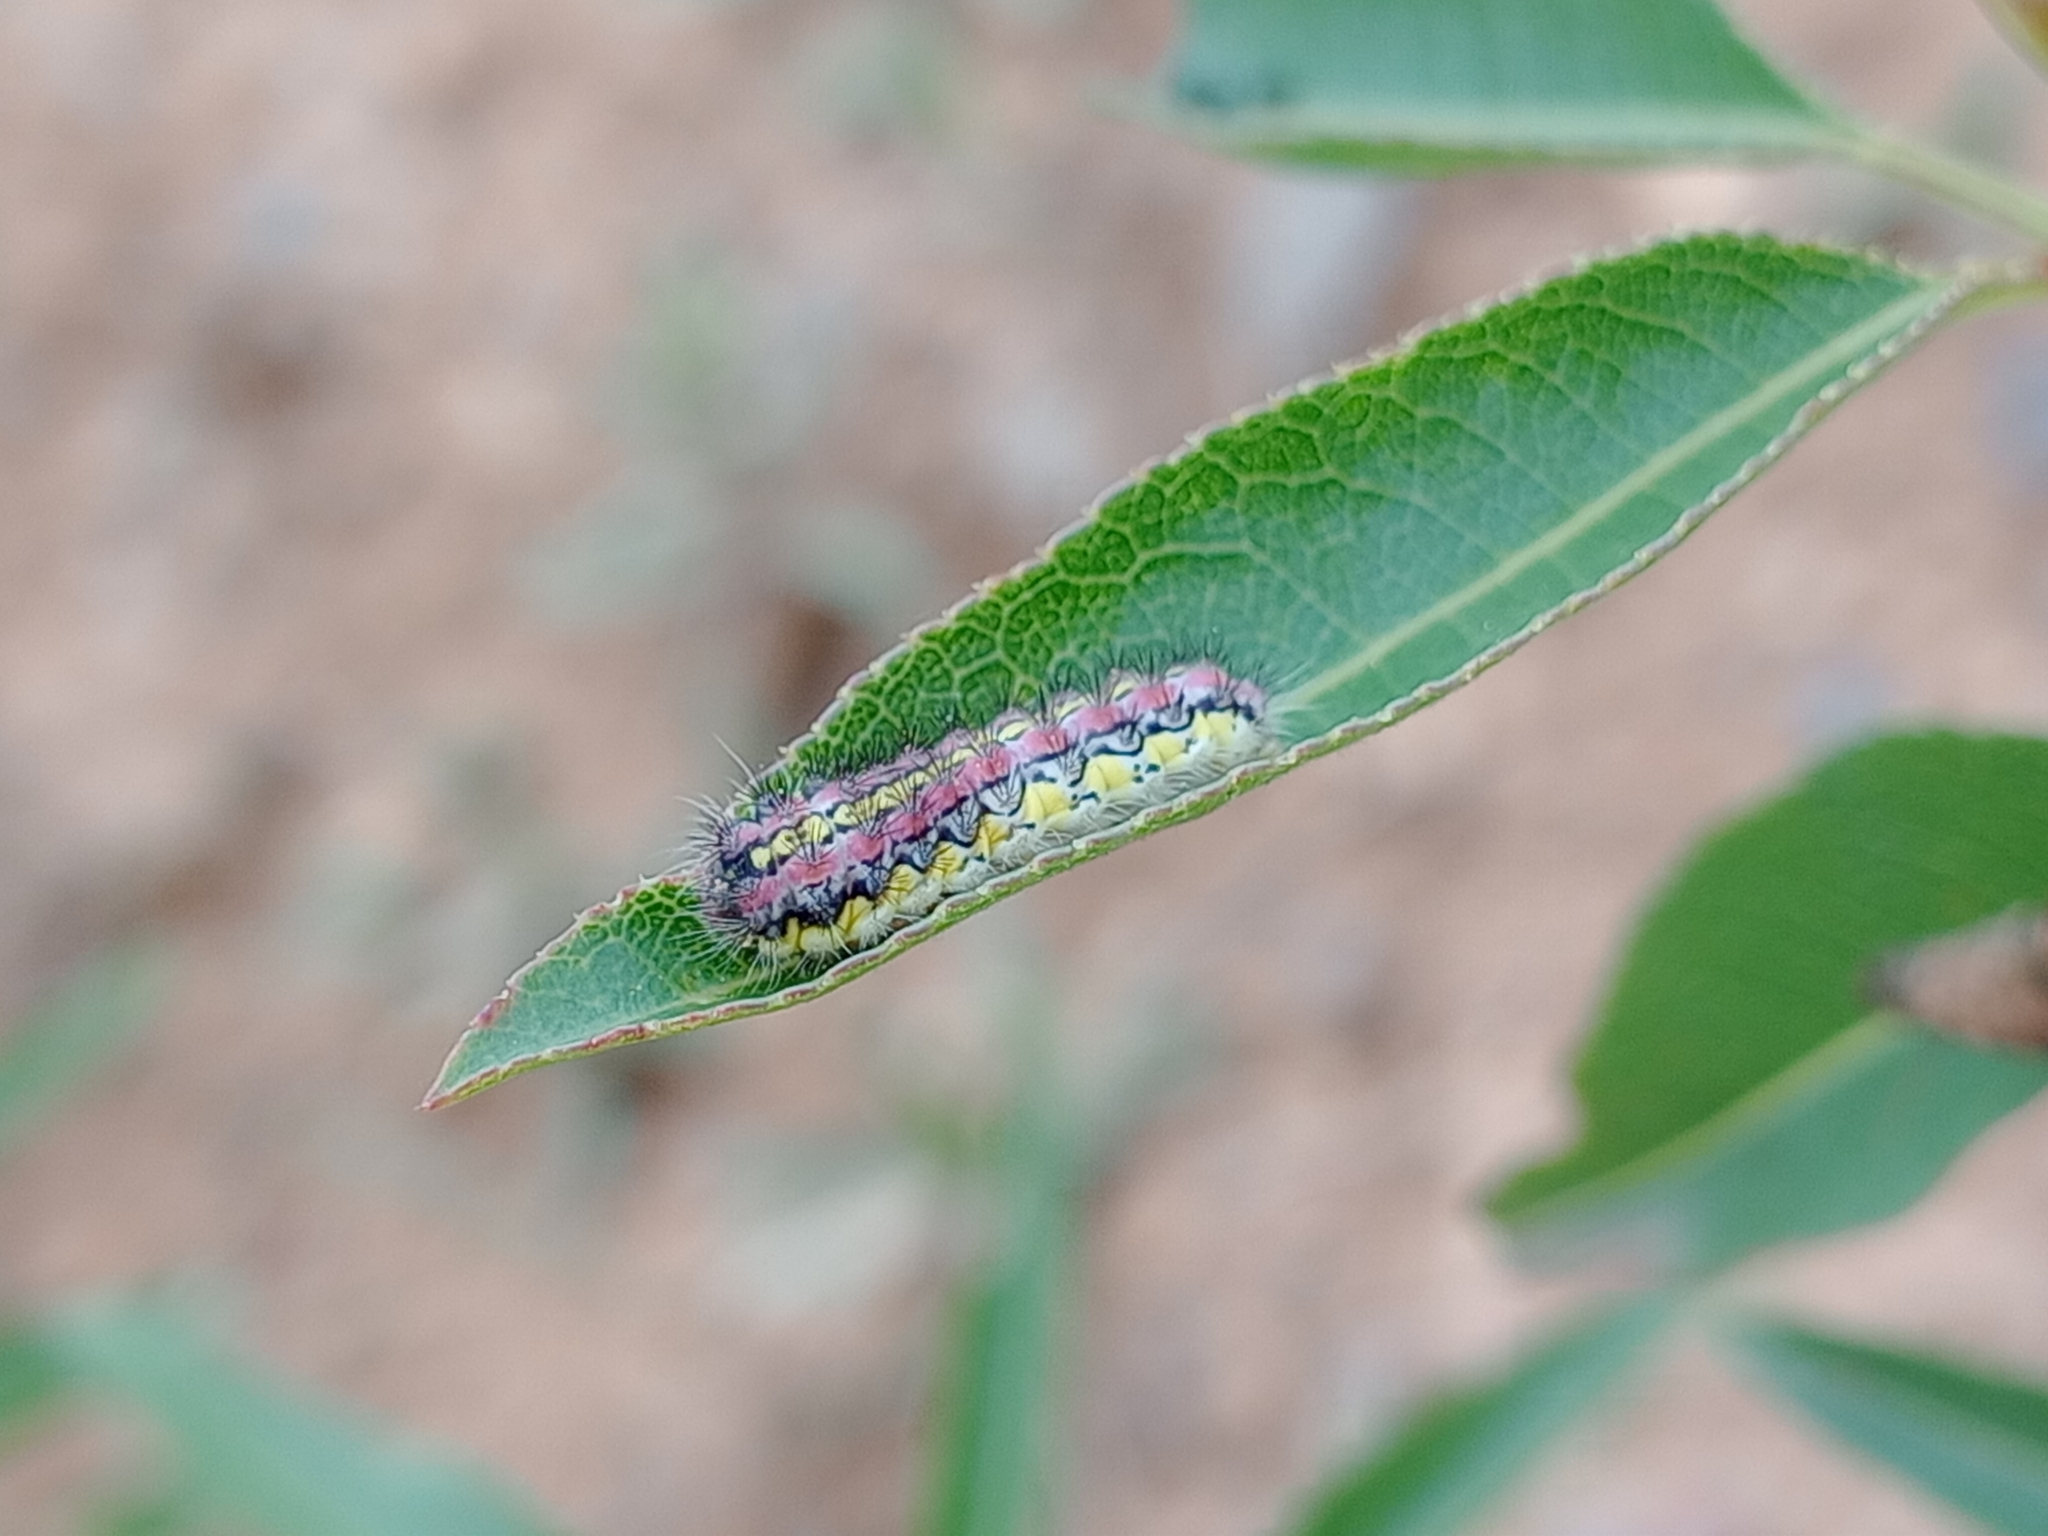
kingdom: Animalia
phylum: Arthropoda
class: Insecta
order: Lepidoptera
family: Zygaenidae
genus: Aglaope
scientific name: Aglaope infausta
